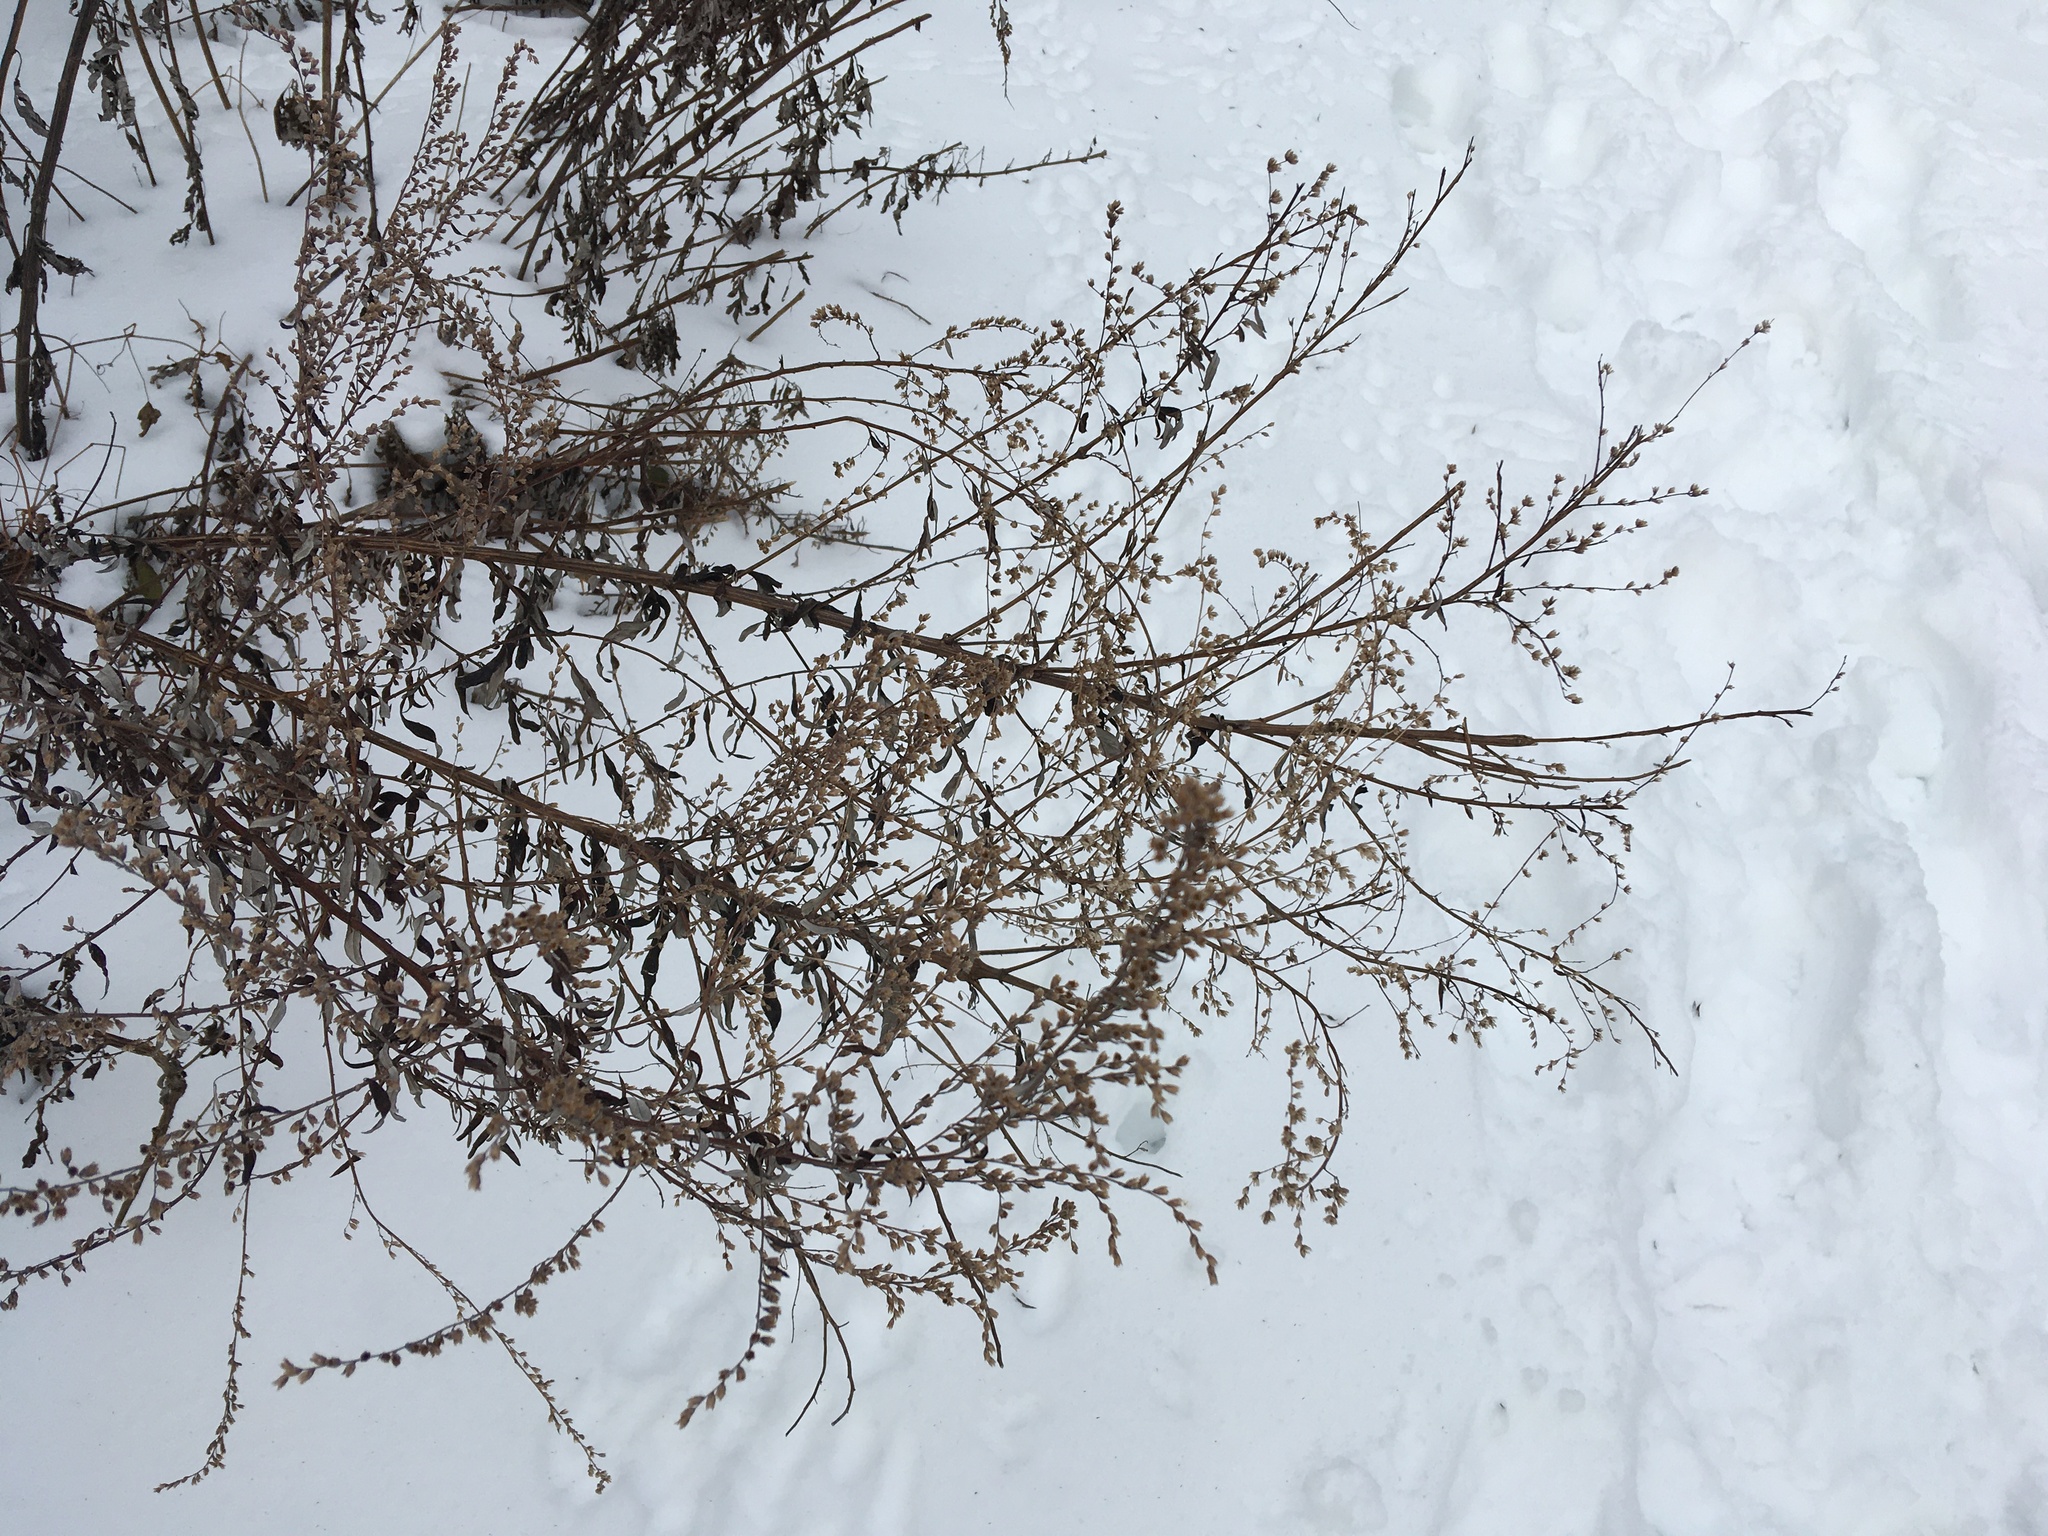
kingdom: Plantae
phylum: Tracheophyta
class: Magnoliopsida
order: Asterales
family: Asteraceae
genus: Artemisia
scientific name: Artemisia vulgaris
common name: Mugwort
